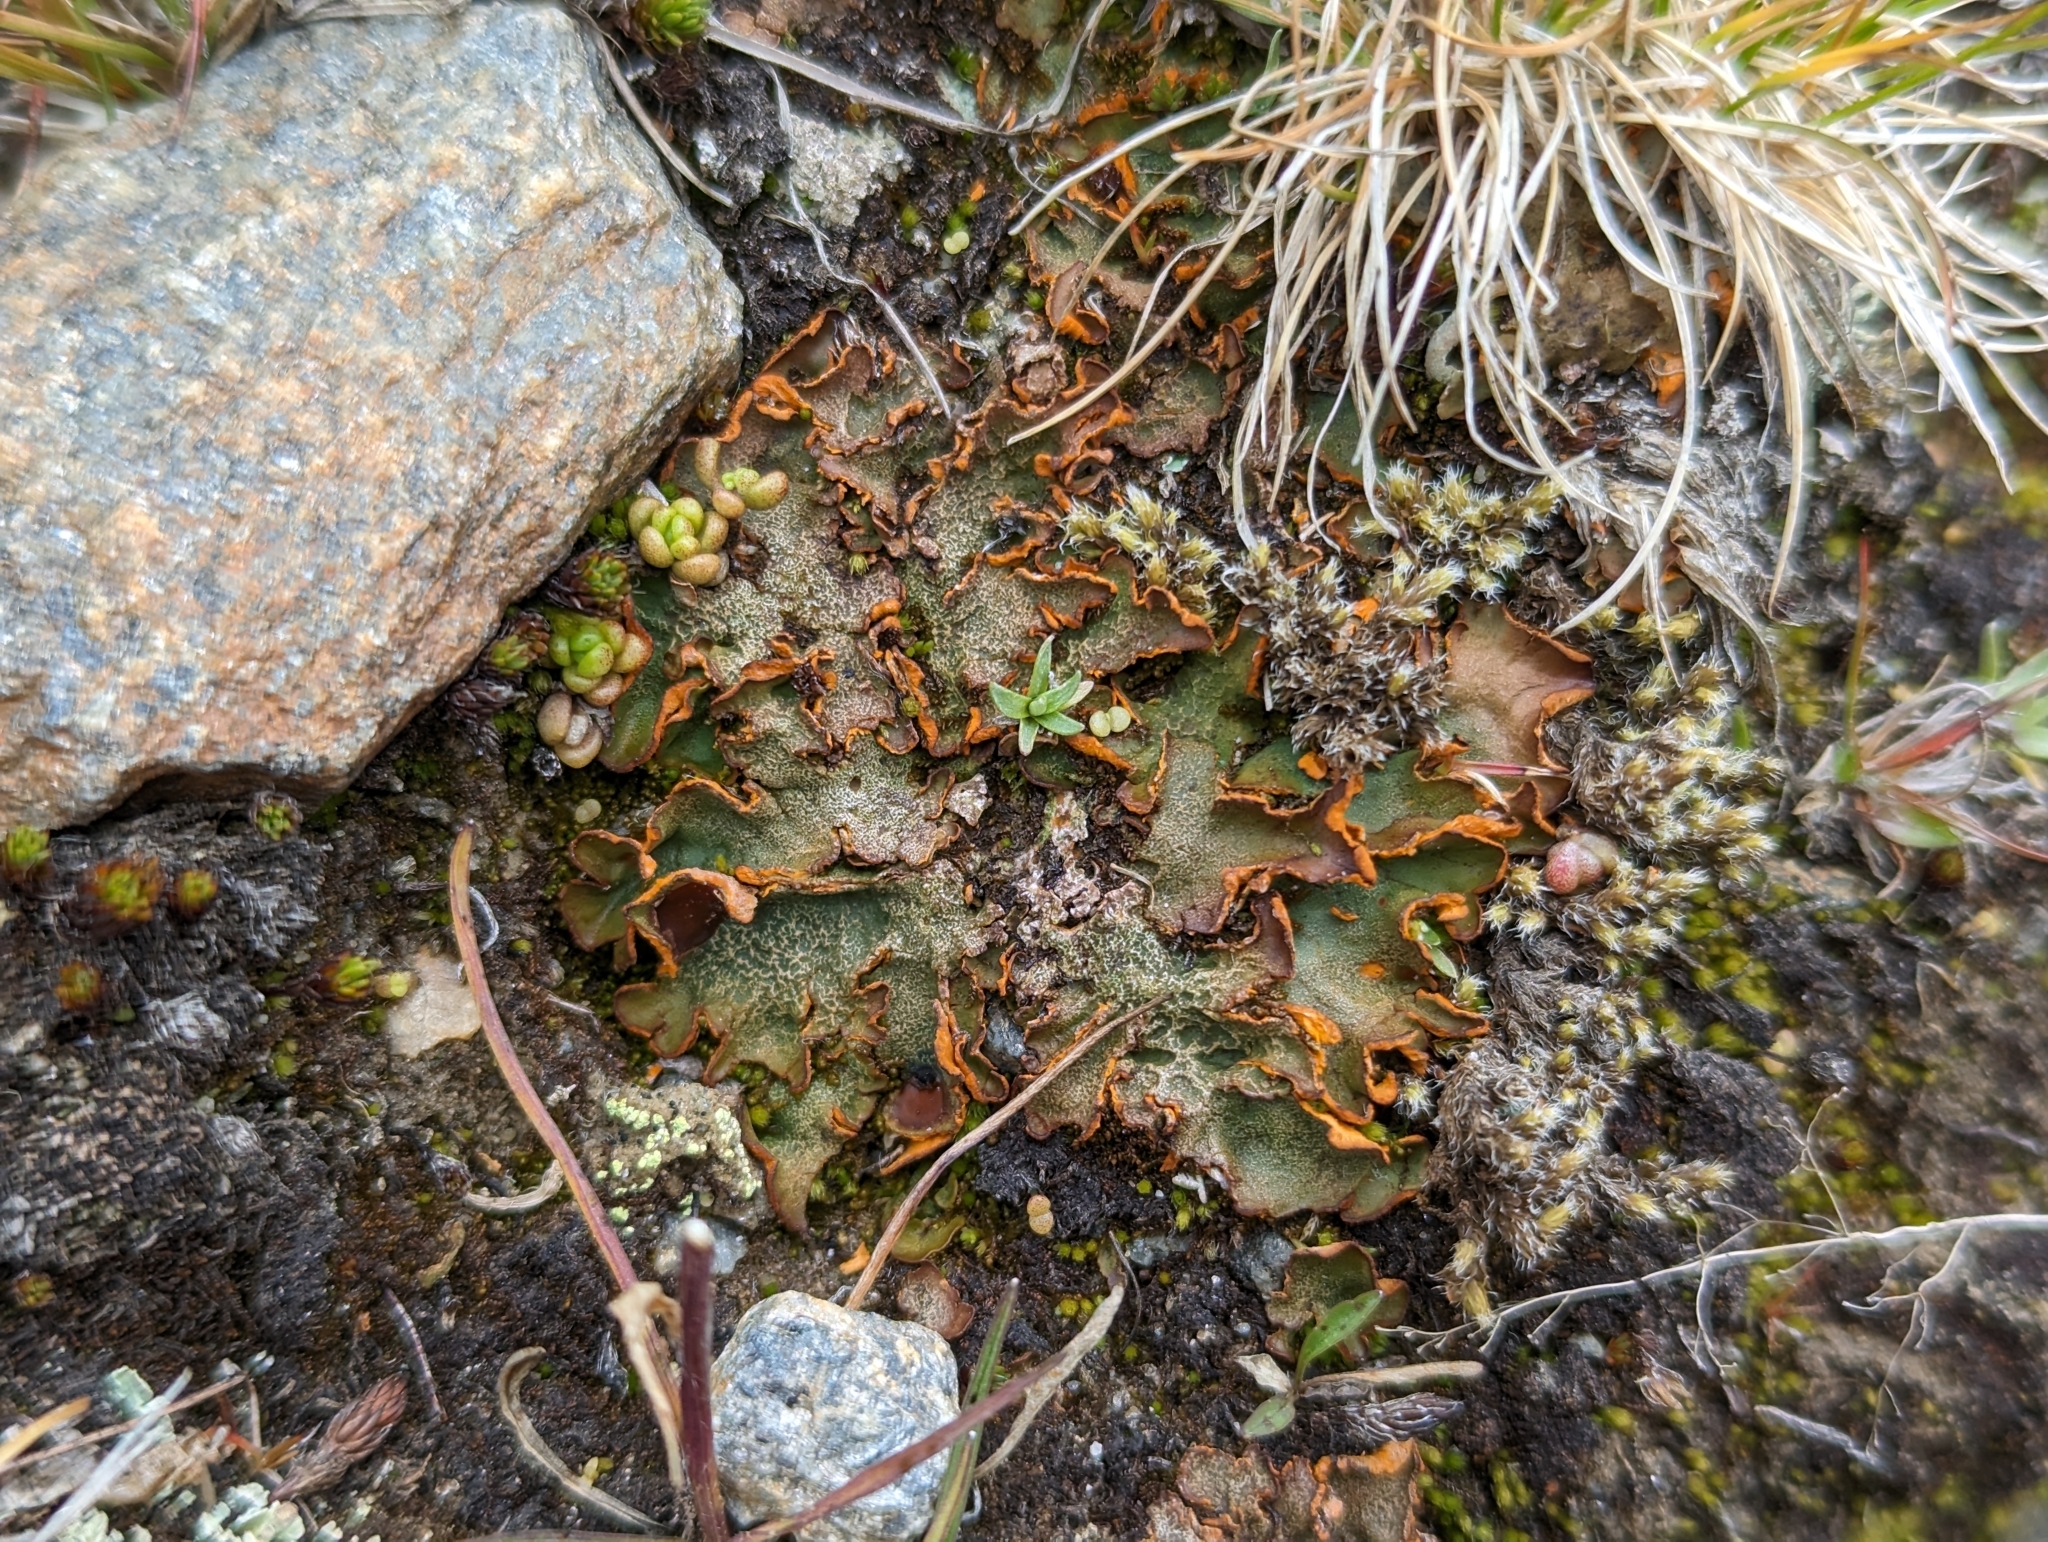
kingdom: Fungi
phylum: Ascomycota
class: Lecanoromycetes
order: Peltigerales
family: Peltigeraceae
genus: Solorina
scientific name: Solorina crocea
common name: Mountain saffron
